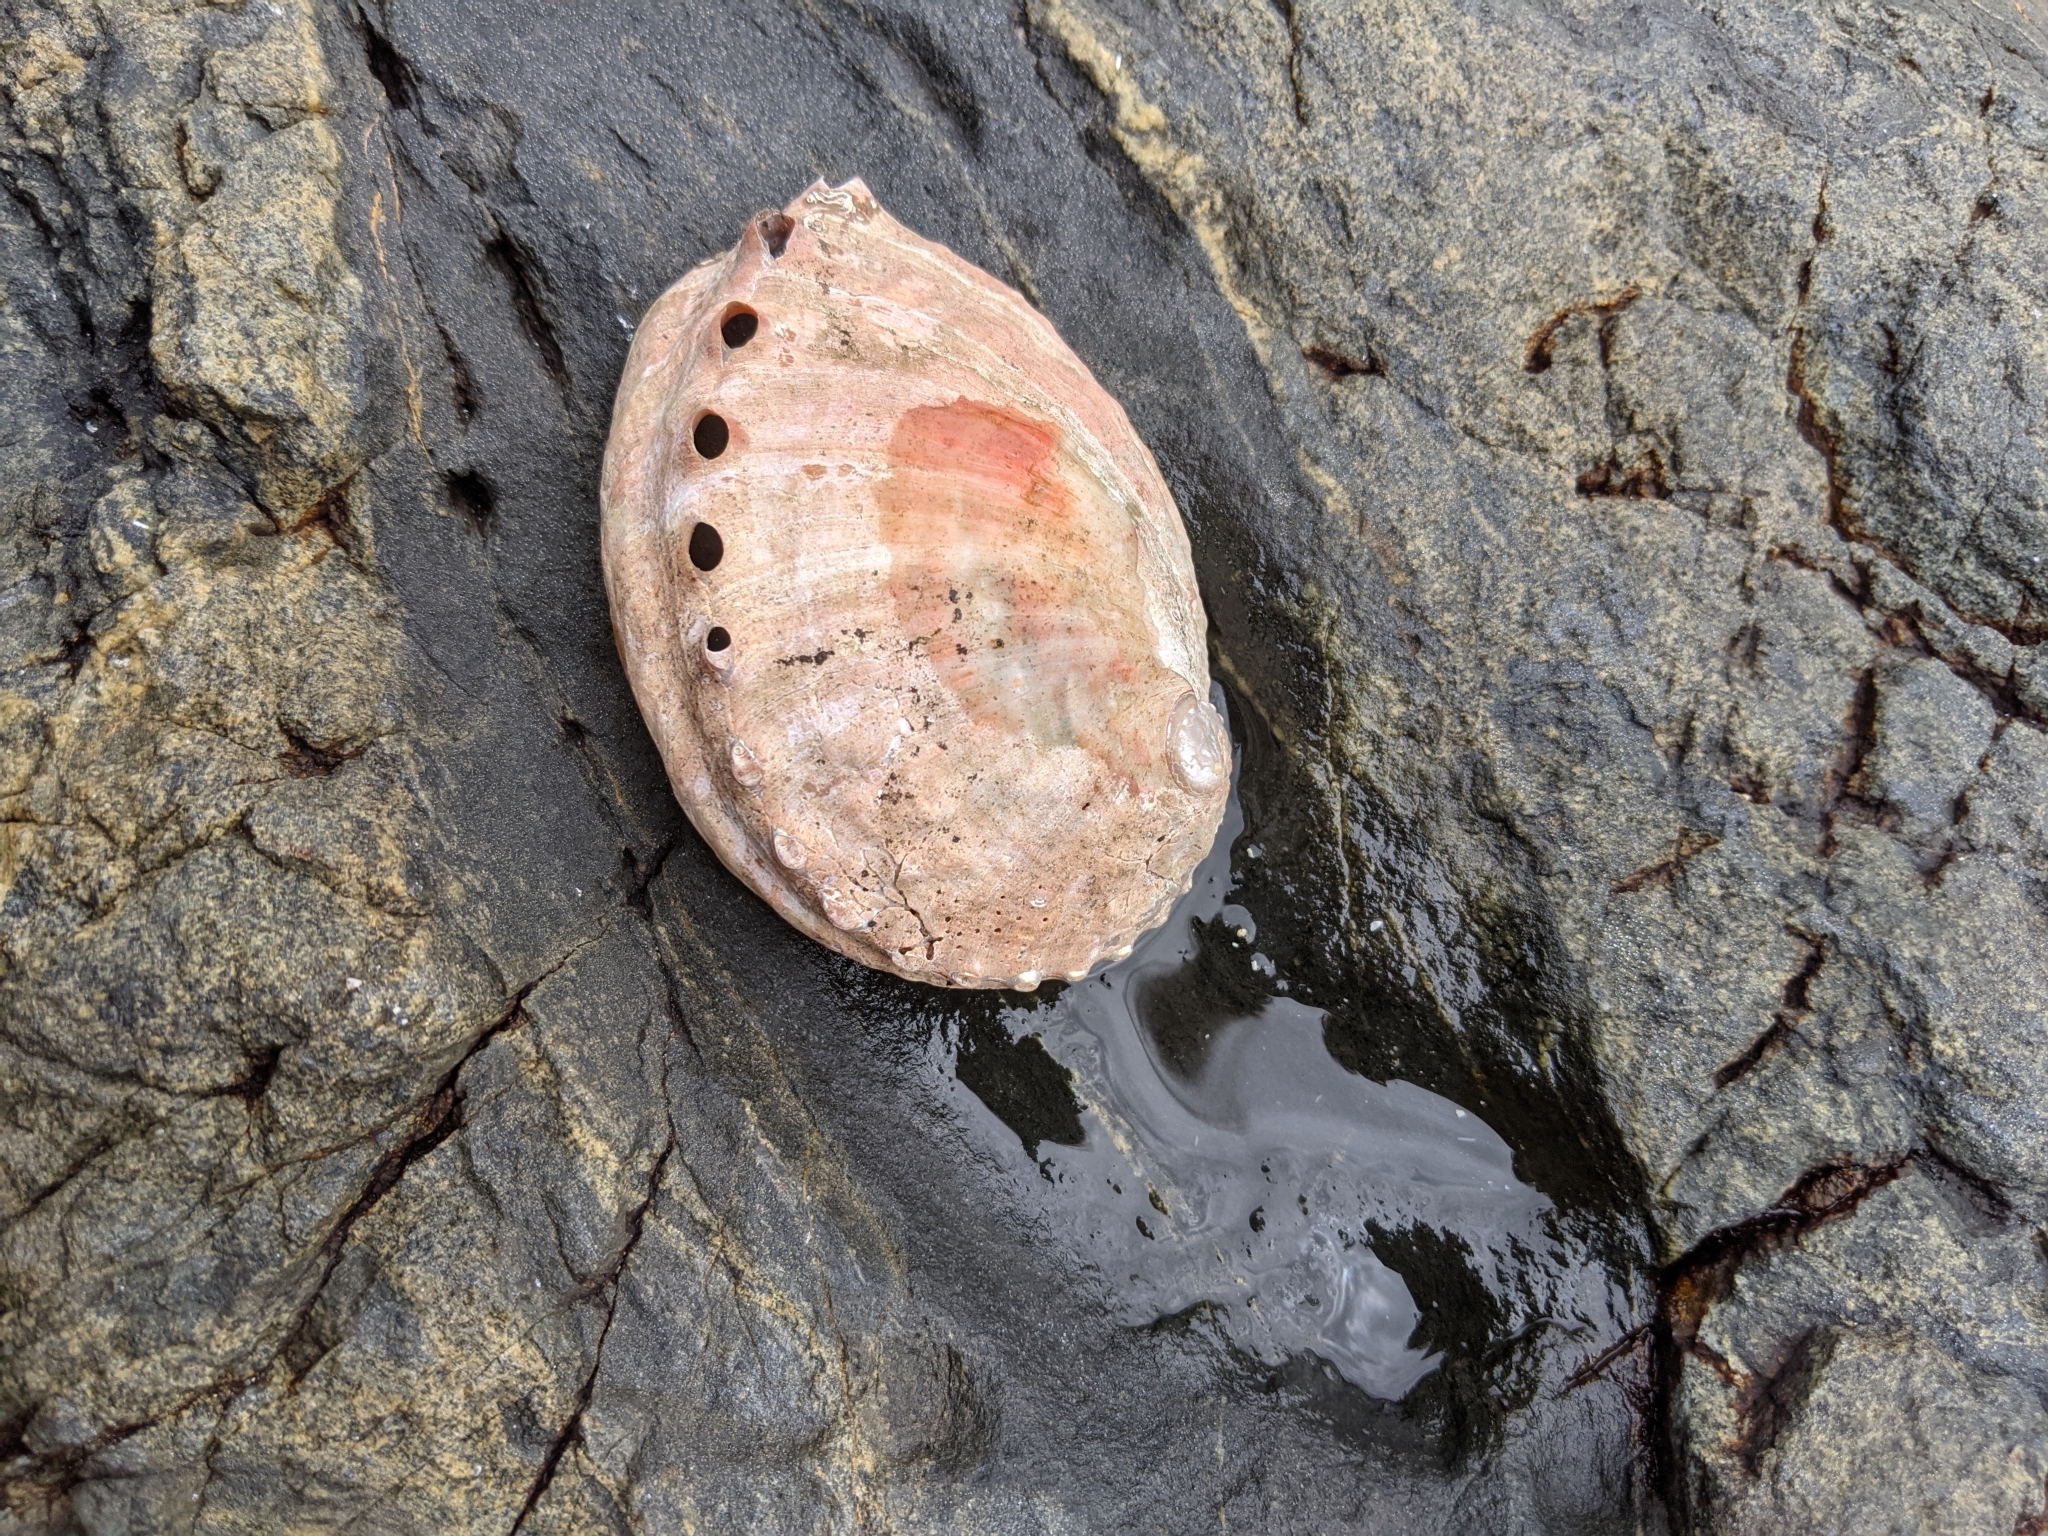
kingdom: Animalia
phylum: Mollusca
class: Gastropoda
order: Lepetellida
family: Haliotidae
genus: Haliotis
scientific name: Haliotis kamtschatkana
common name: Pinto abalone
